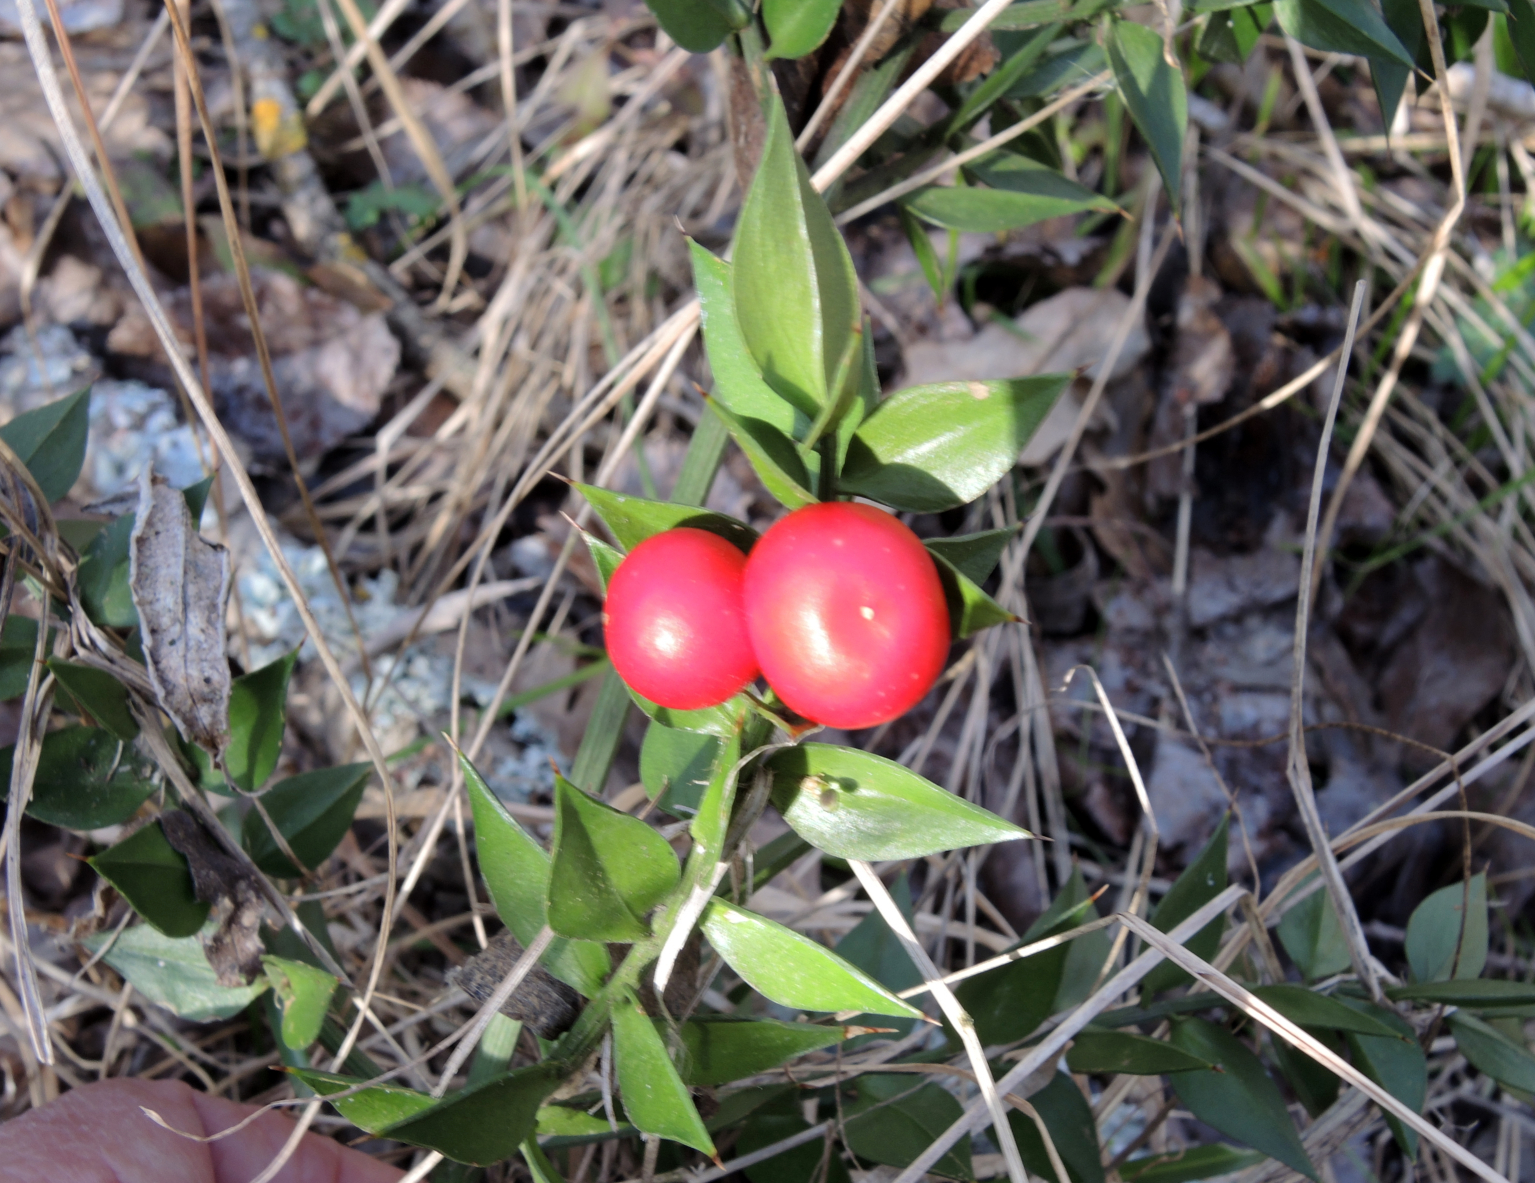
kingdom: Plantae
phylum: Tracheophyta
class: Liliopsida
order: Asparagales
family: Asparagaceae
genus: Ruscus
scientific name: Ruscus aculeatus
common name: Butcher's-broom
